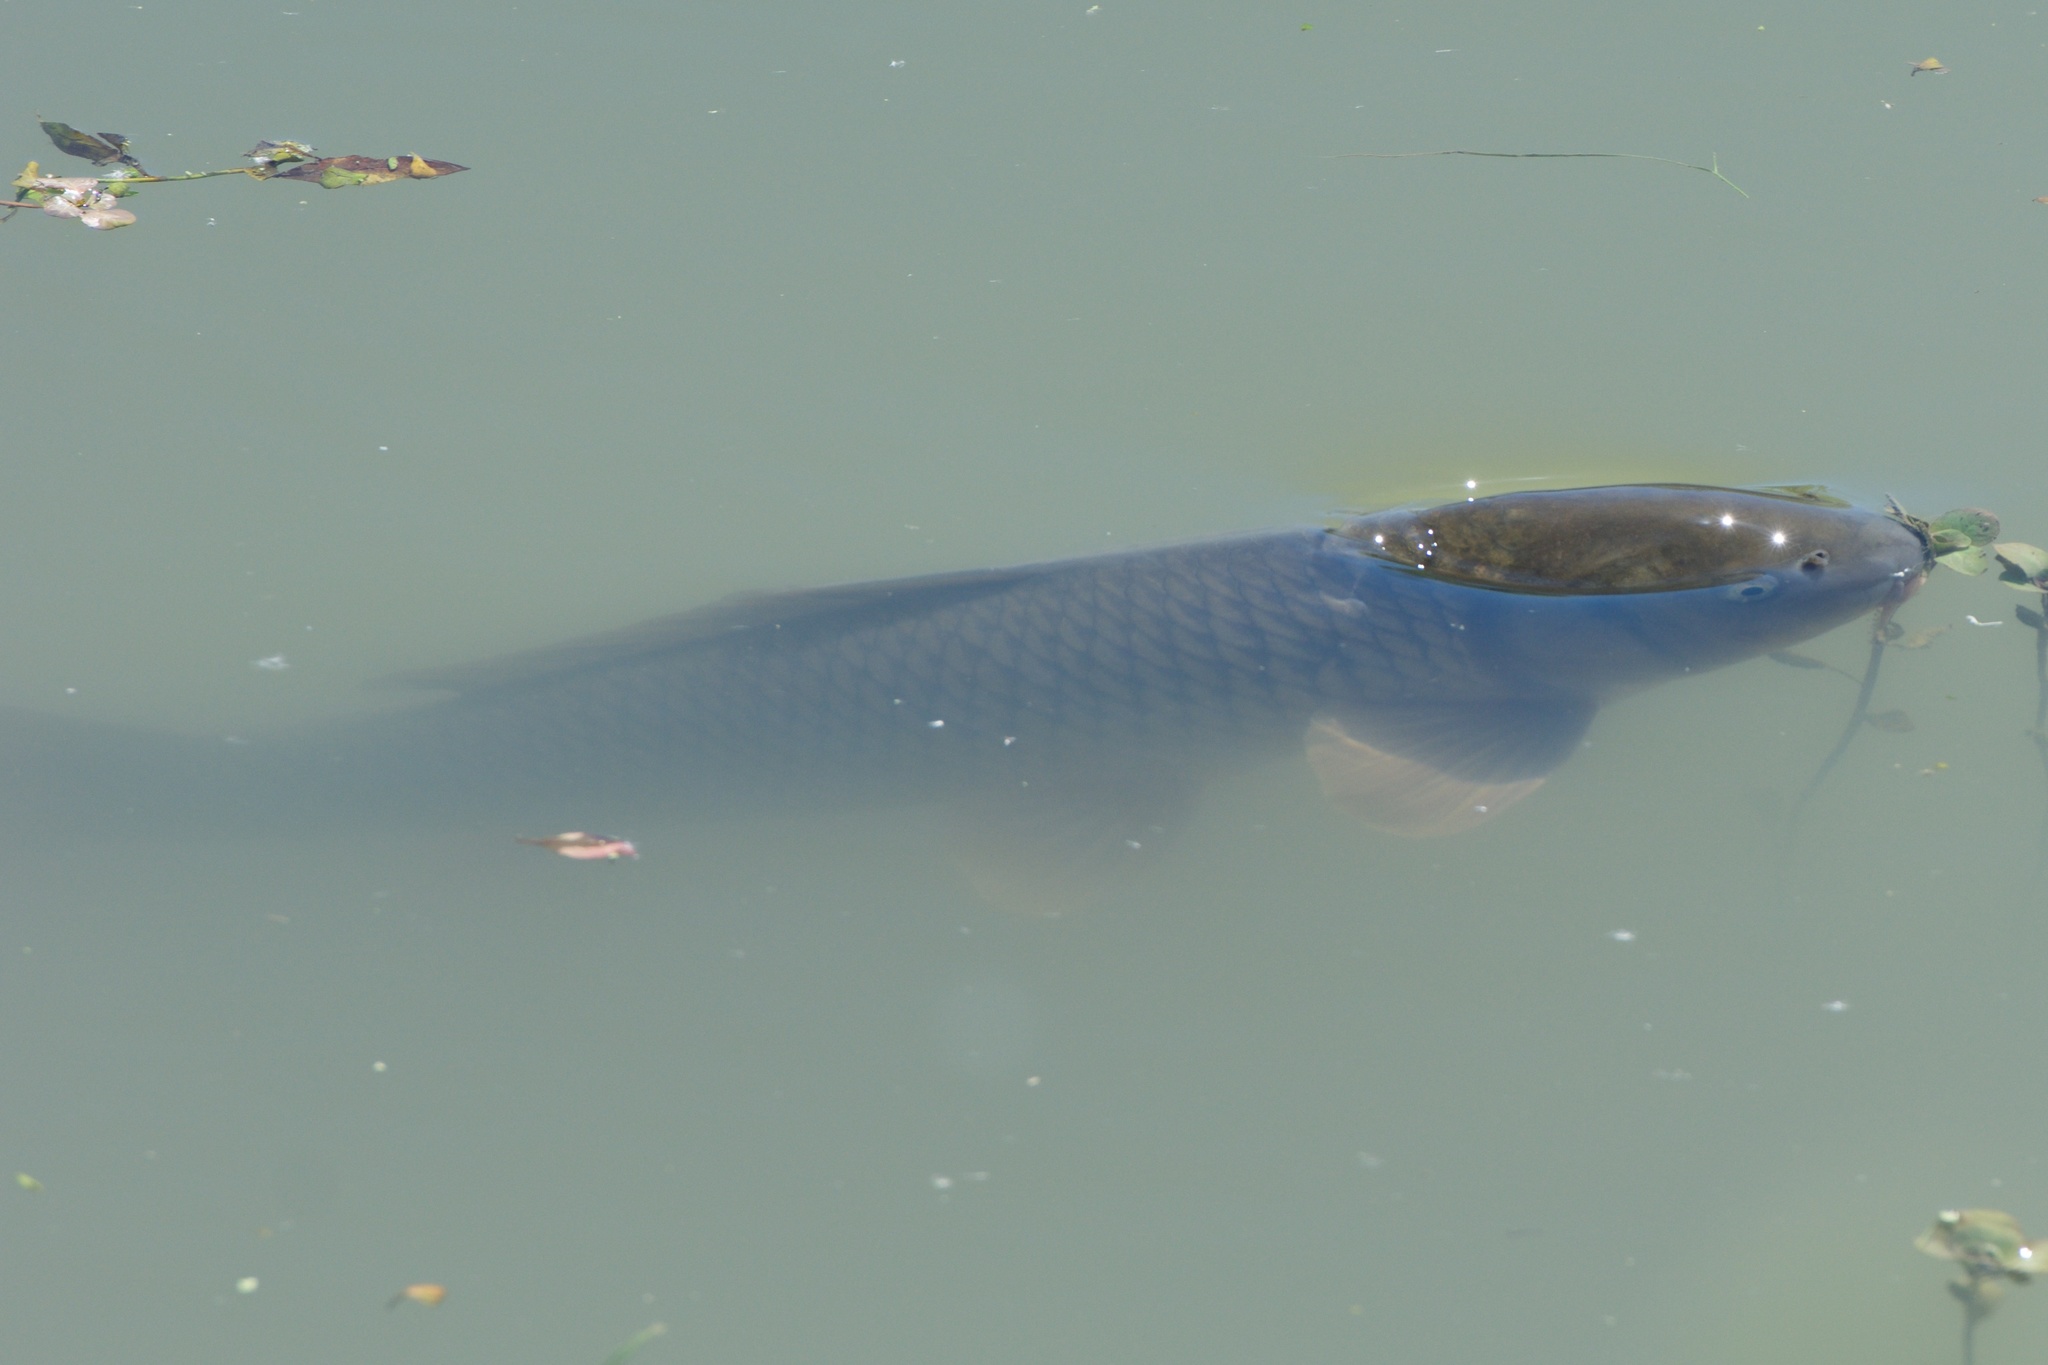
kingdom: Animalia
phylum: Chordata
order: Cypriniformes
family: Cyprinidae
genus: Cyprinus
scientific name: Cyprinus carpio
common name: Common carp
